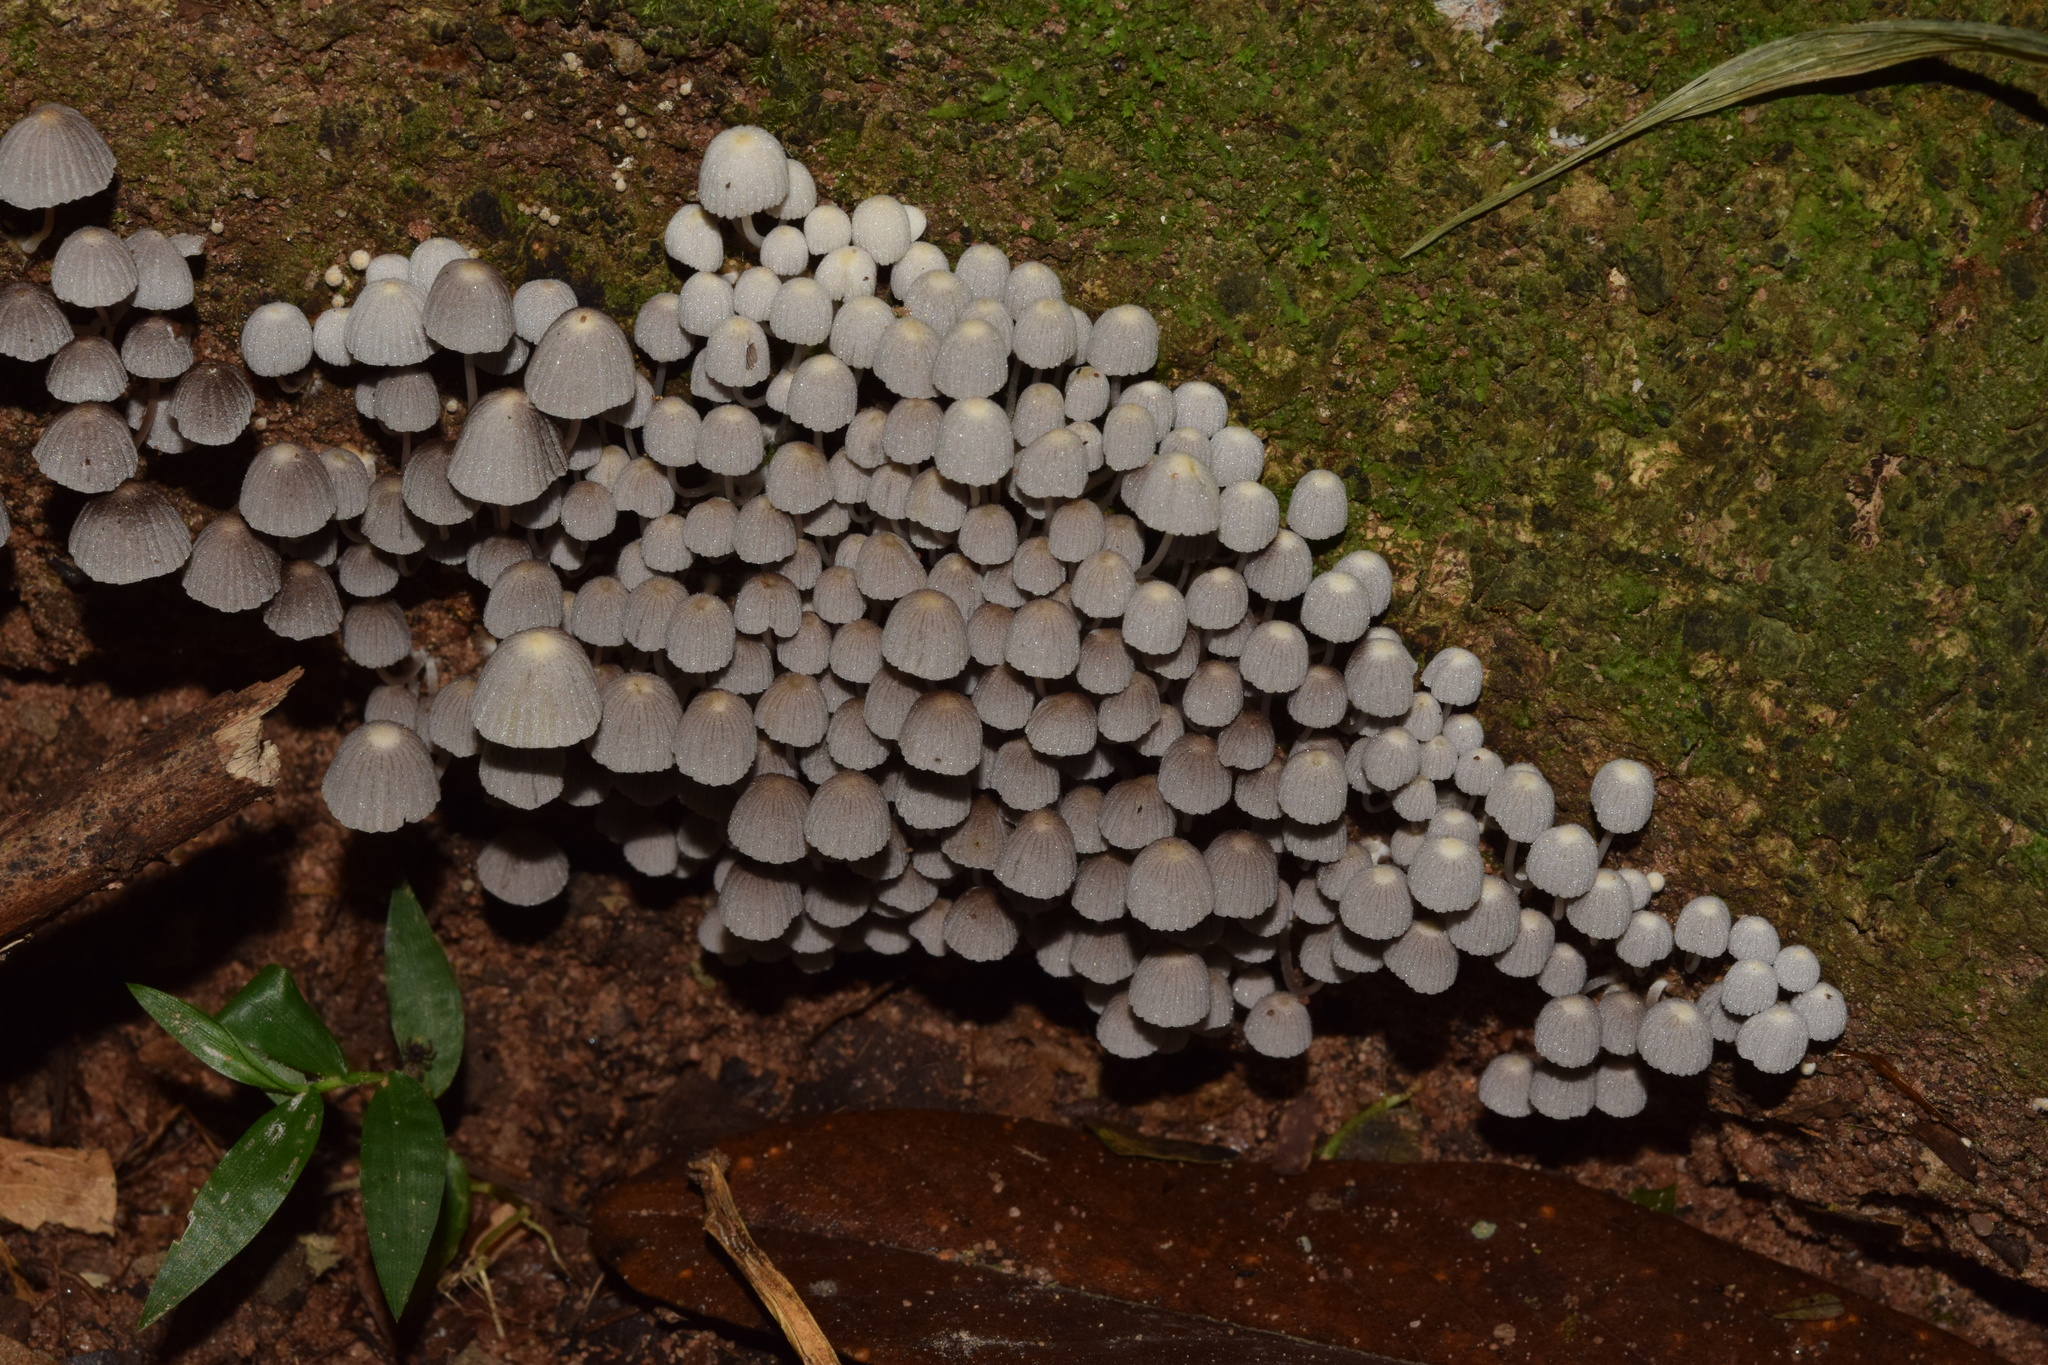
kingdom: Fungi
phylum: Basidiomycota
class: Agaricomycetes
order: Agaricales
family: Psathyrellaceae
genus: Coprinellus
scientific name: Coprinellus disseminatus
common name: Fairies' bonnets
